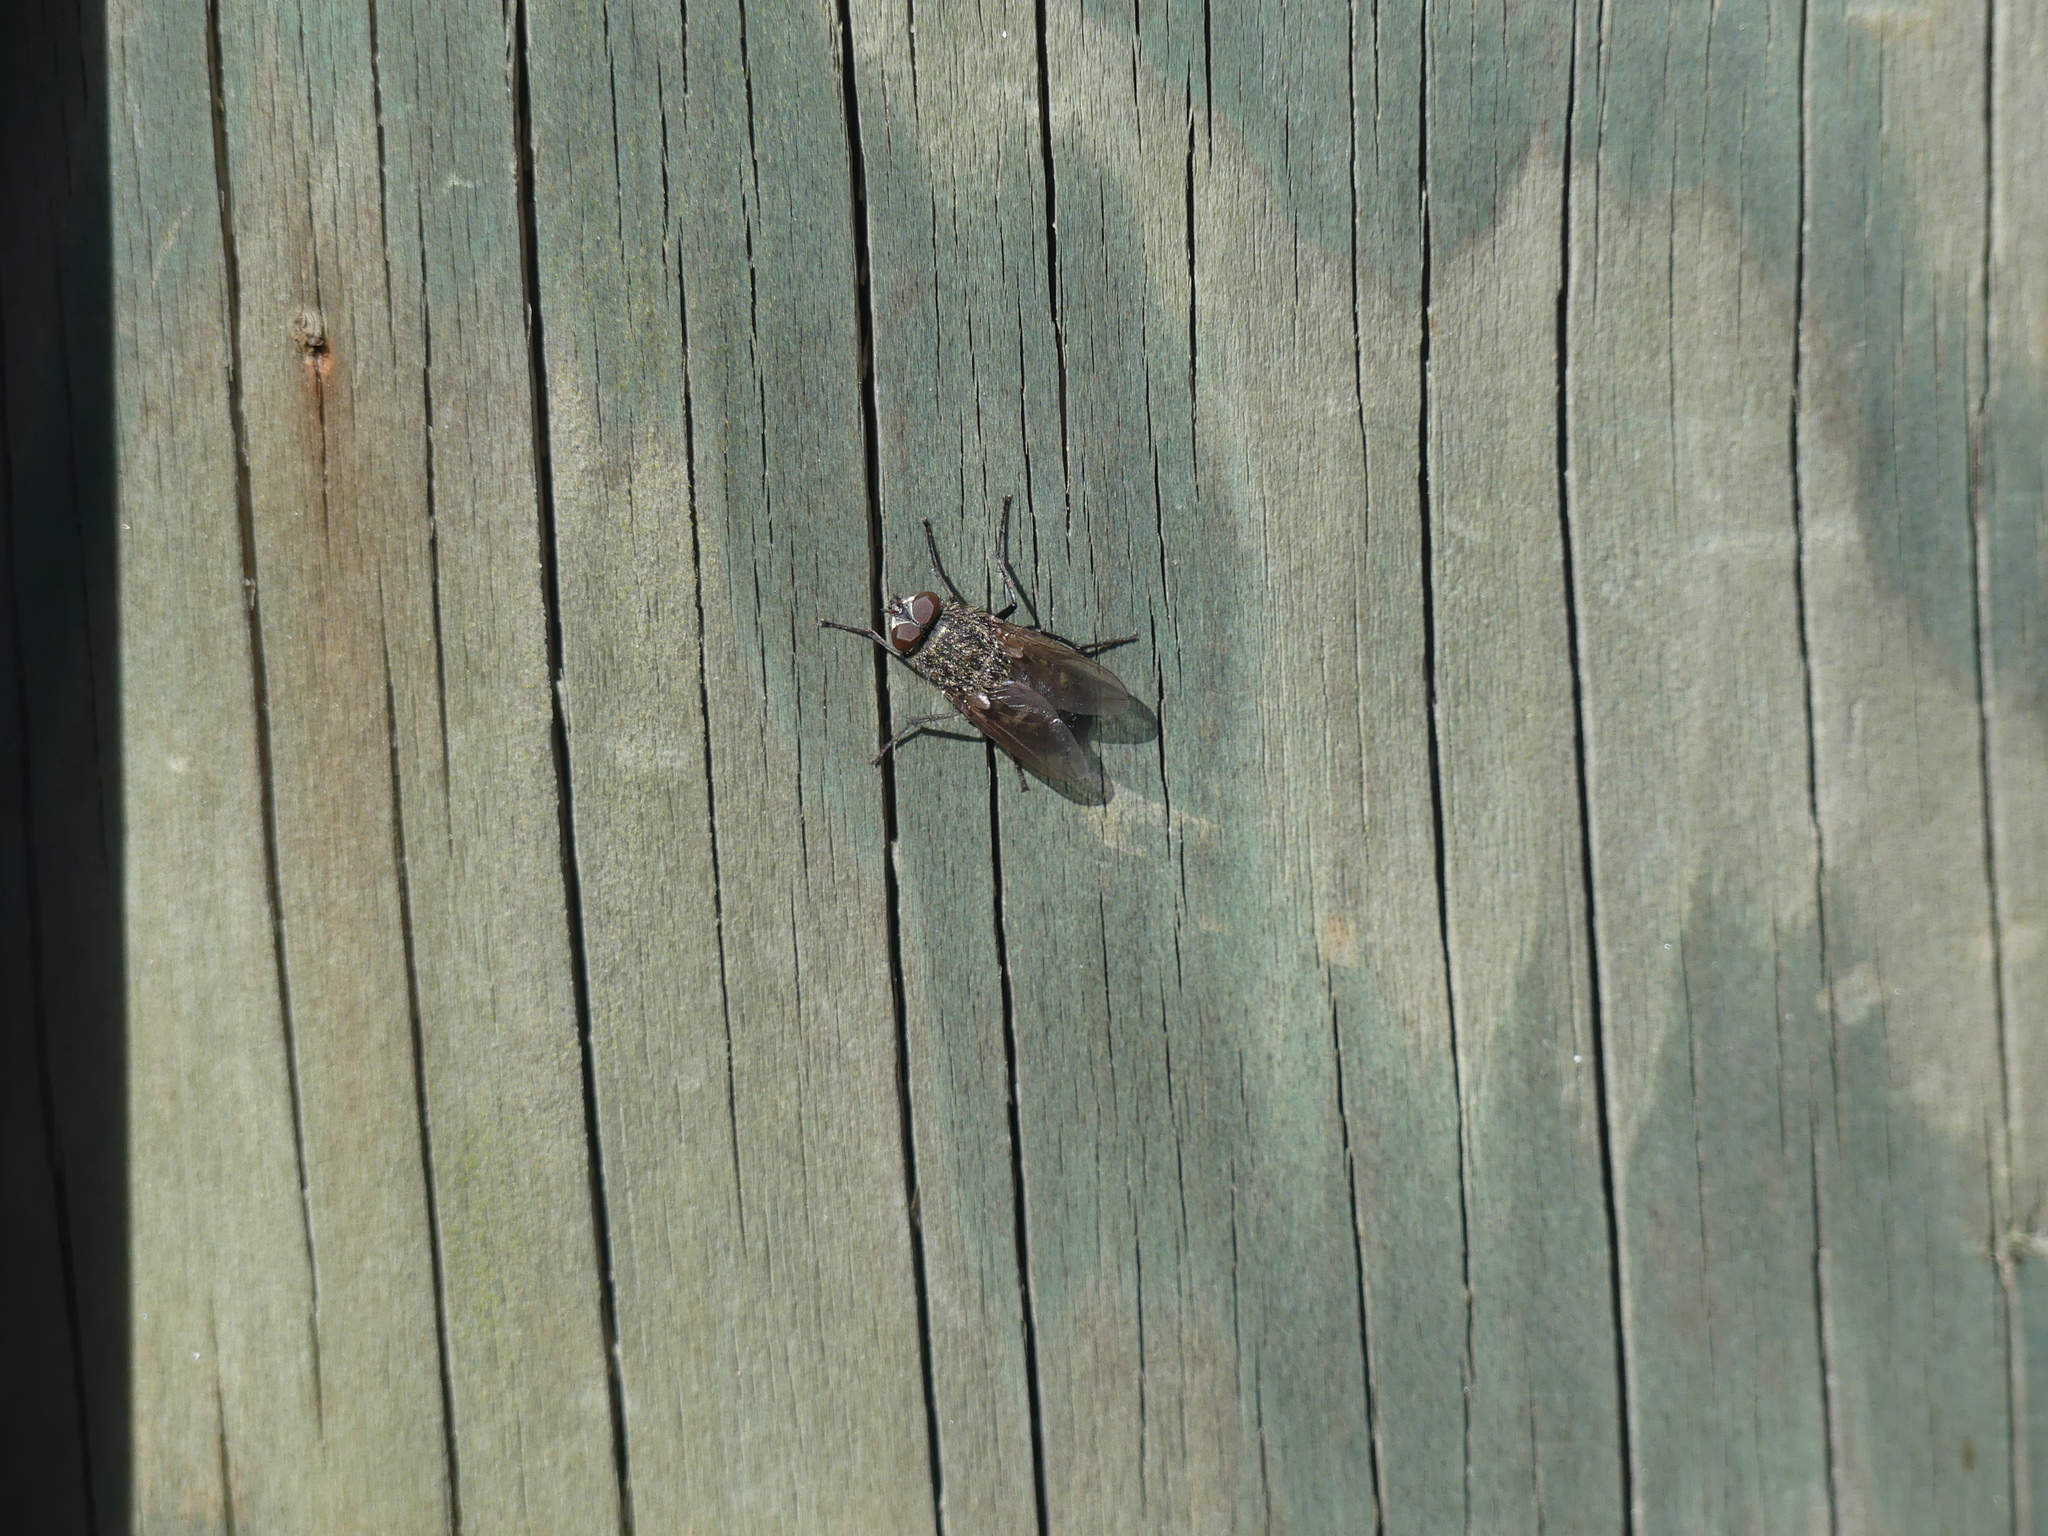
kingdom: Animalia
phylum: Arthropoda
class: Insecta
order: Diptera
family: Polleniidae
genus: Pollenia
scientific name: Pollenia
